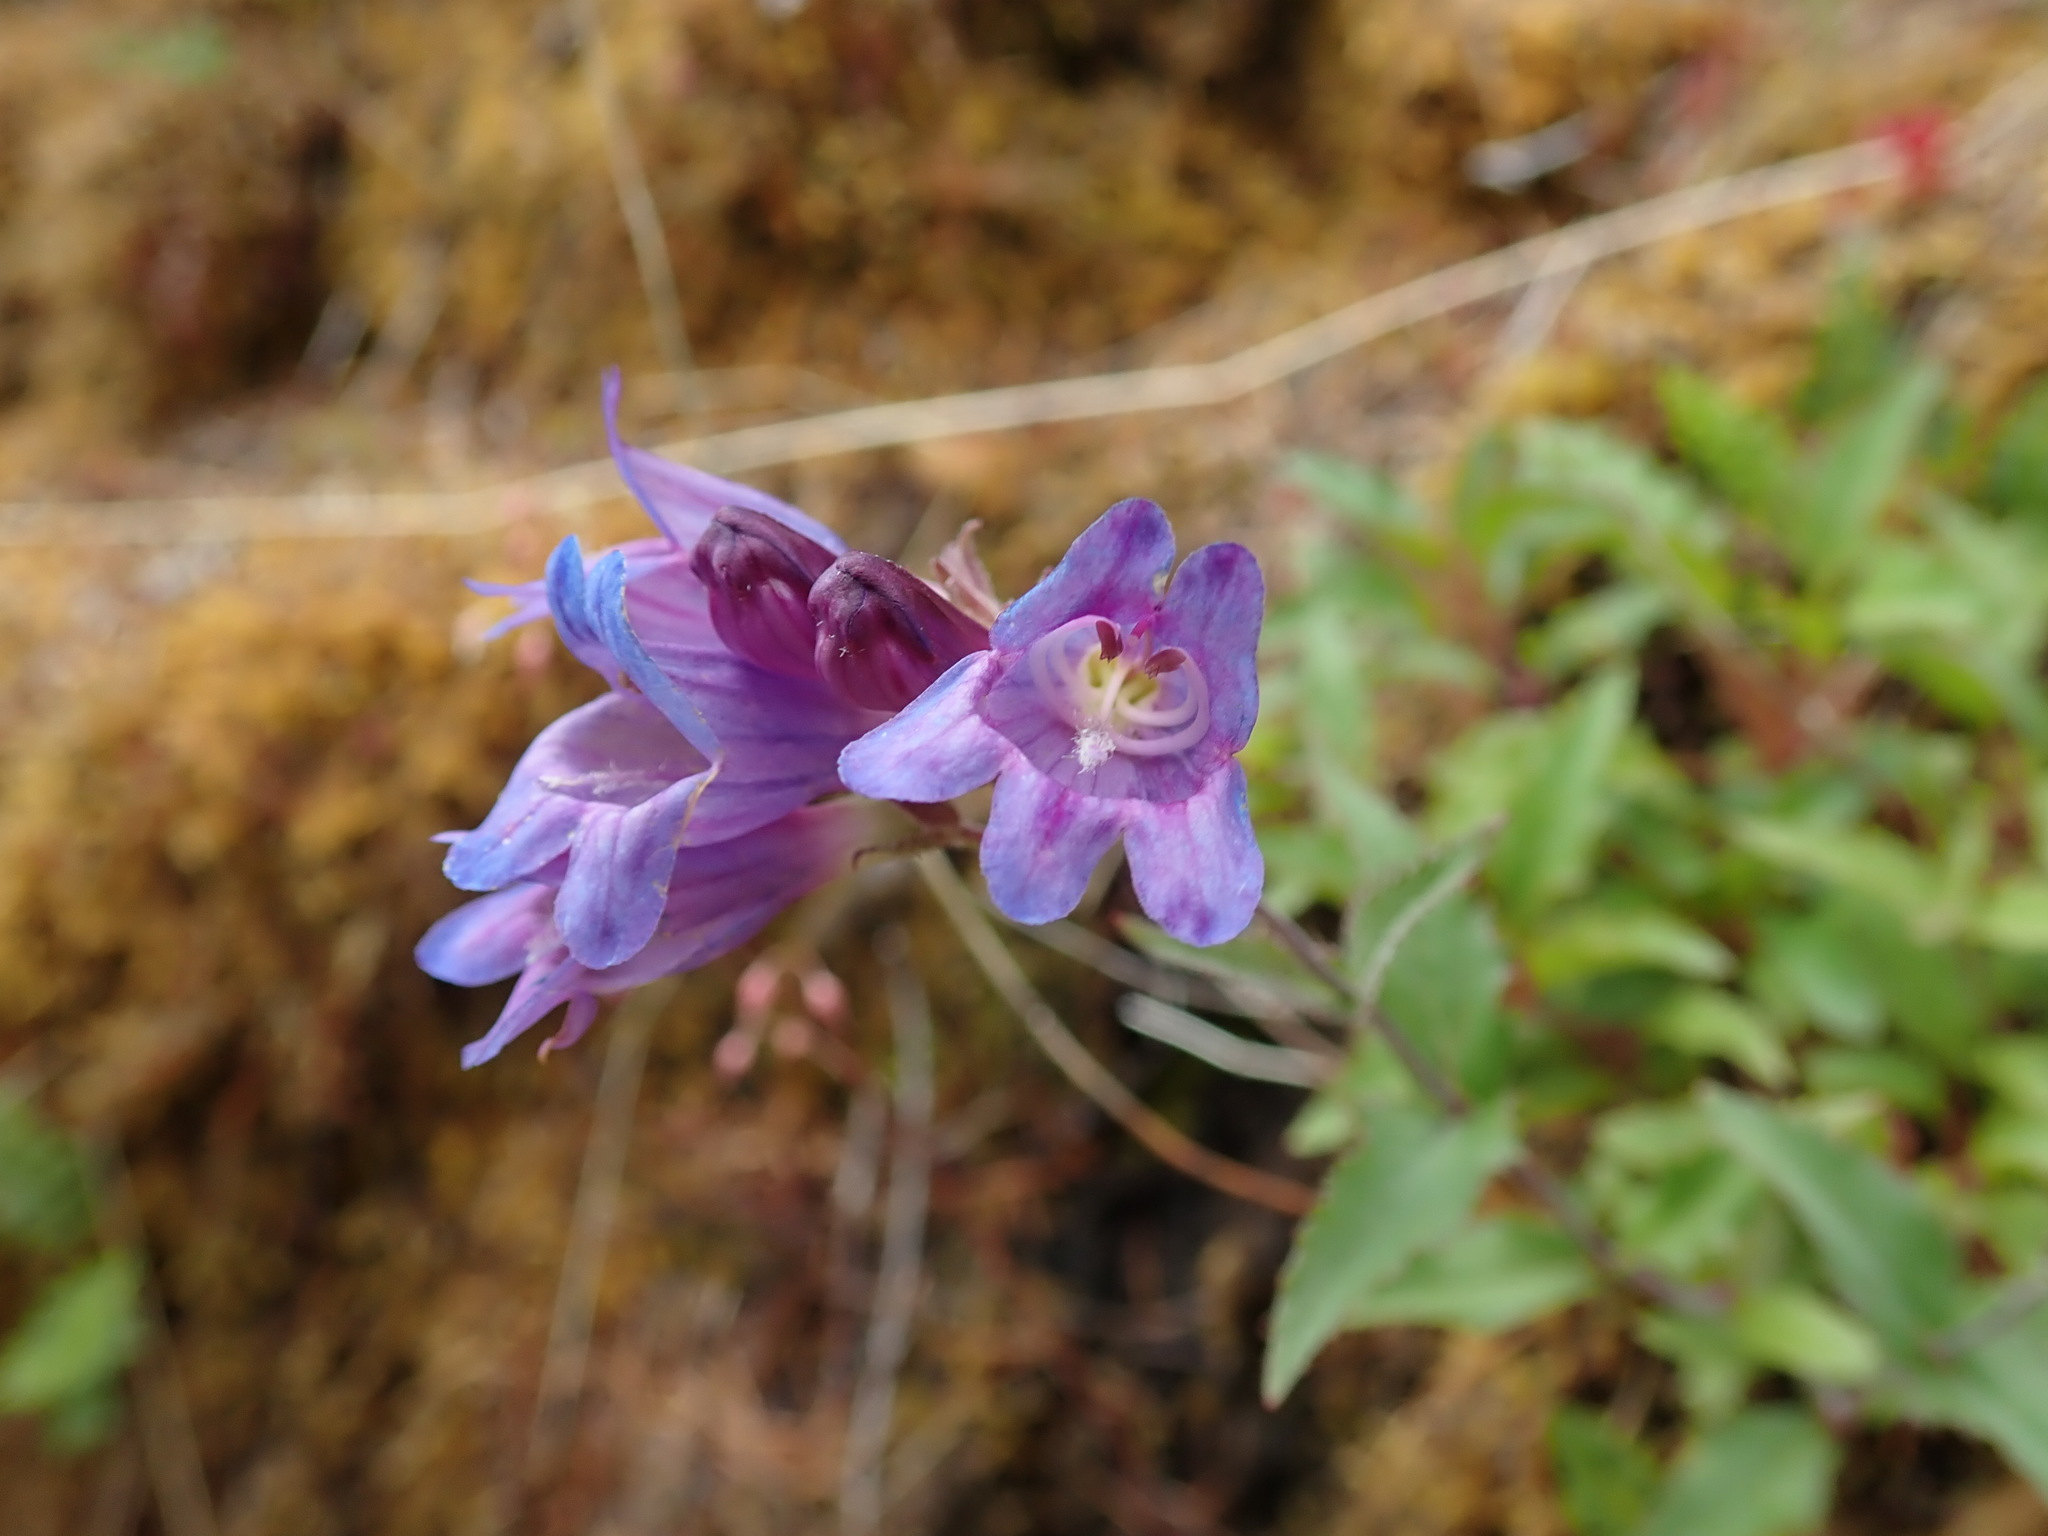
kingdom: Plantae
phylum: Tracheophyta
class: Magnoliopsida
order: Lamiales
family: Plantaginaceae
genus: Penstemon
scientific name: Penstemon serrulatus
